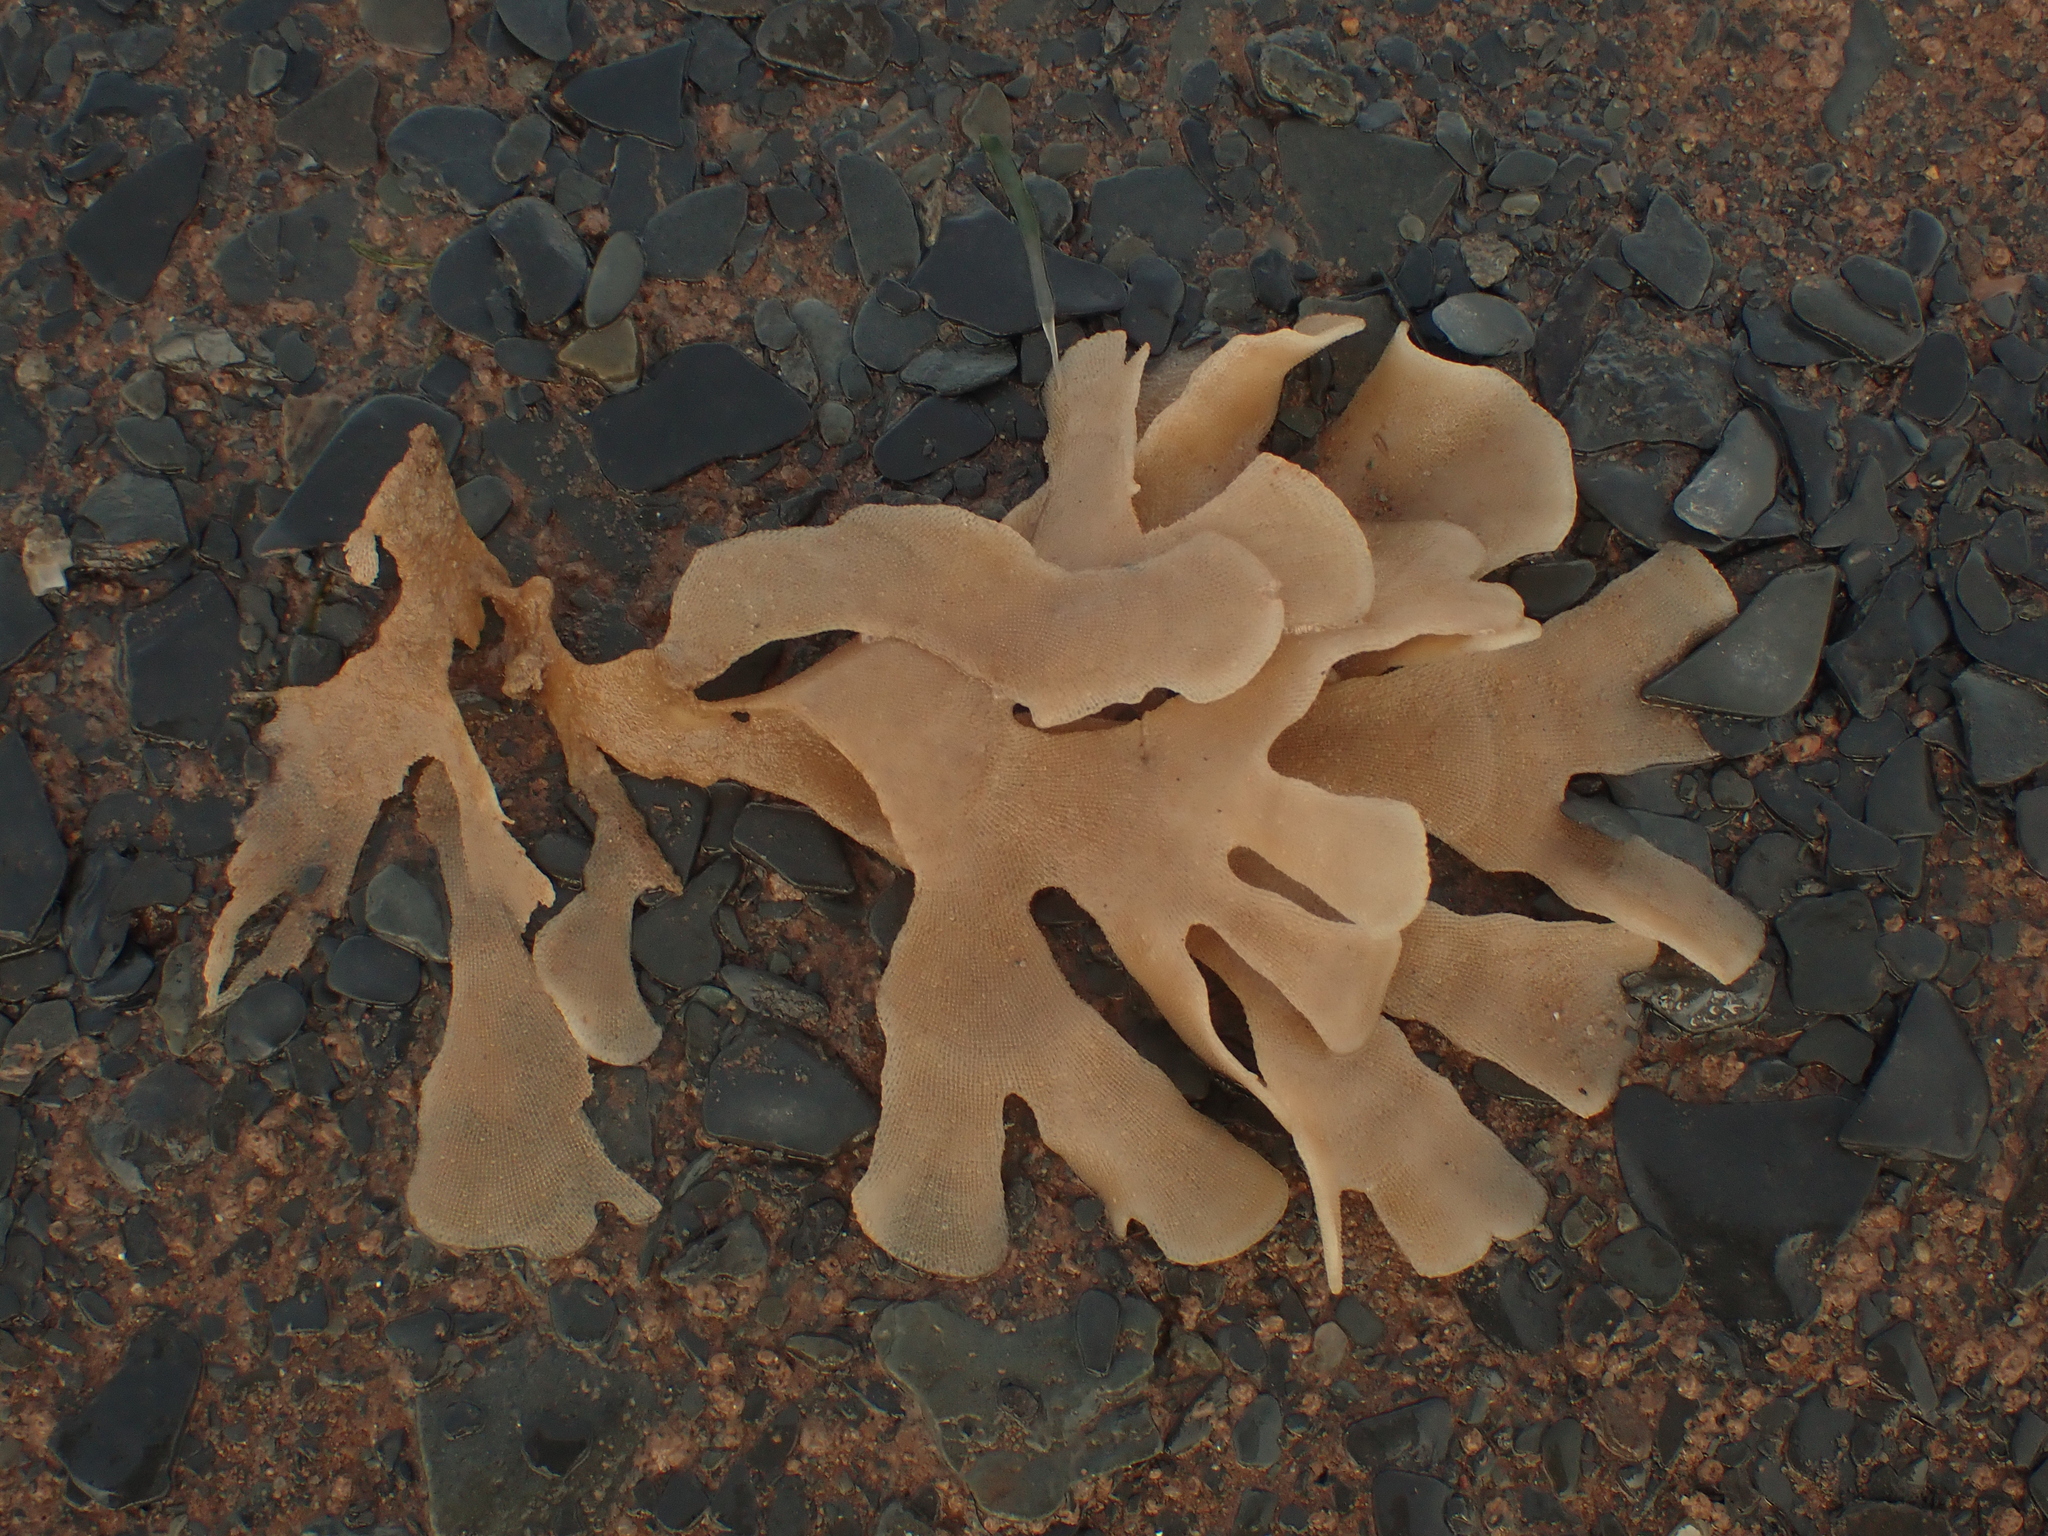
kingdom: Animalia
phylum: Bryozoa
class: Gymnolaemata
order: Cheilostomatida
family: Flustridae
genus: Flustra
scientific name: Flustra foliacea
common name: Hornwrack
